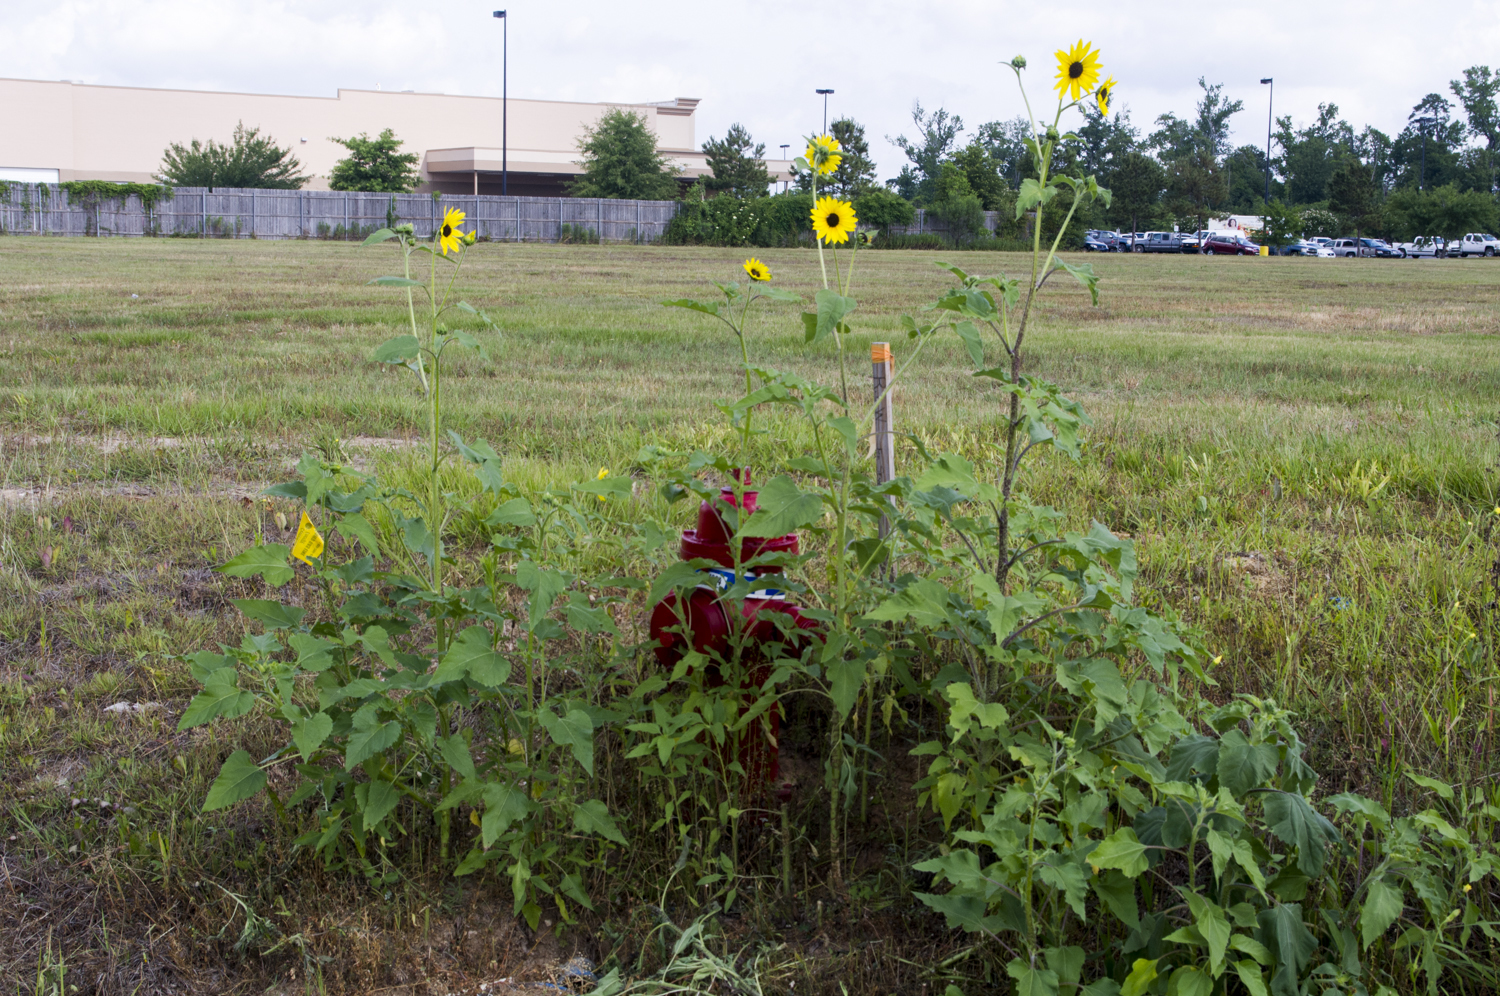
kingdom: Plantae
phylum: Tracheophyta
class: Magnoliopsida
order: Asterales
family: Asteraceae
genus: Helianthus
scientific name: Helianthus annuus
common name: Sunflower
